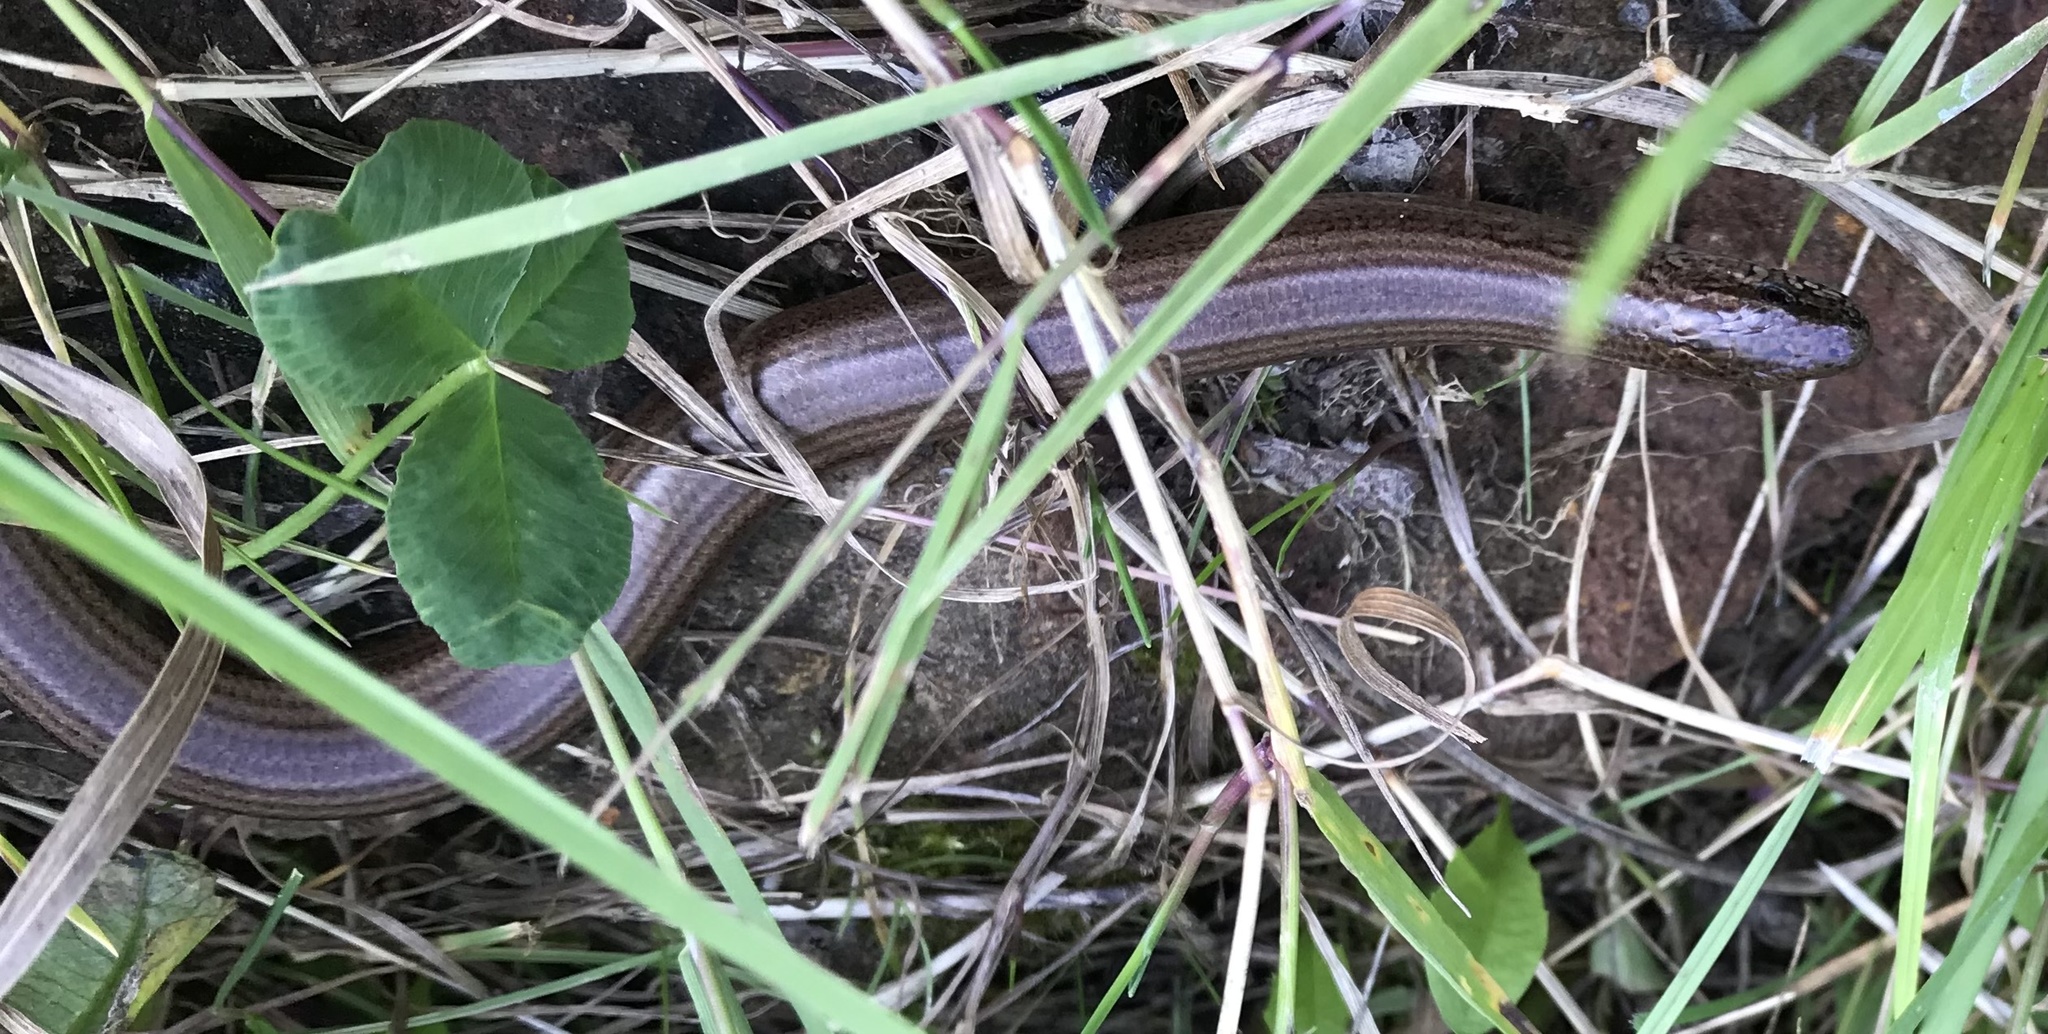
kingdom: Animalia
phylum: Chordata
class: Squamata
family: Anguidae
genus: Anguis
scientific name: Anguis fragilis
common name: Slow worm
